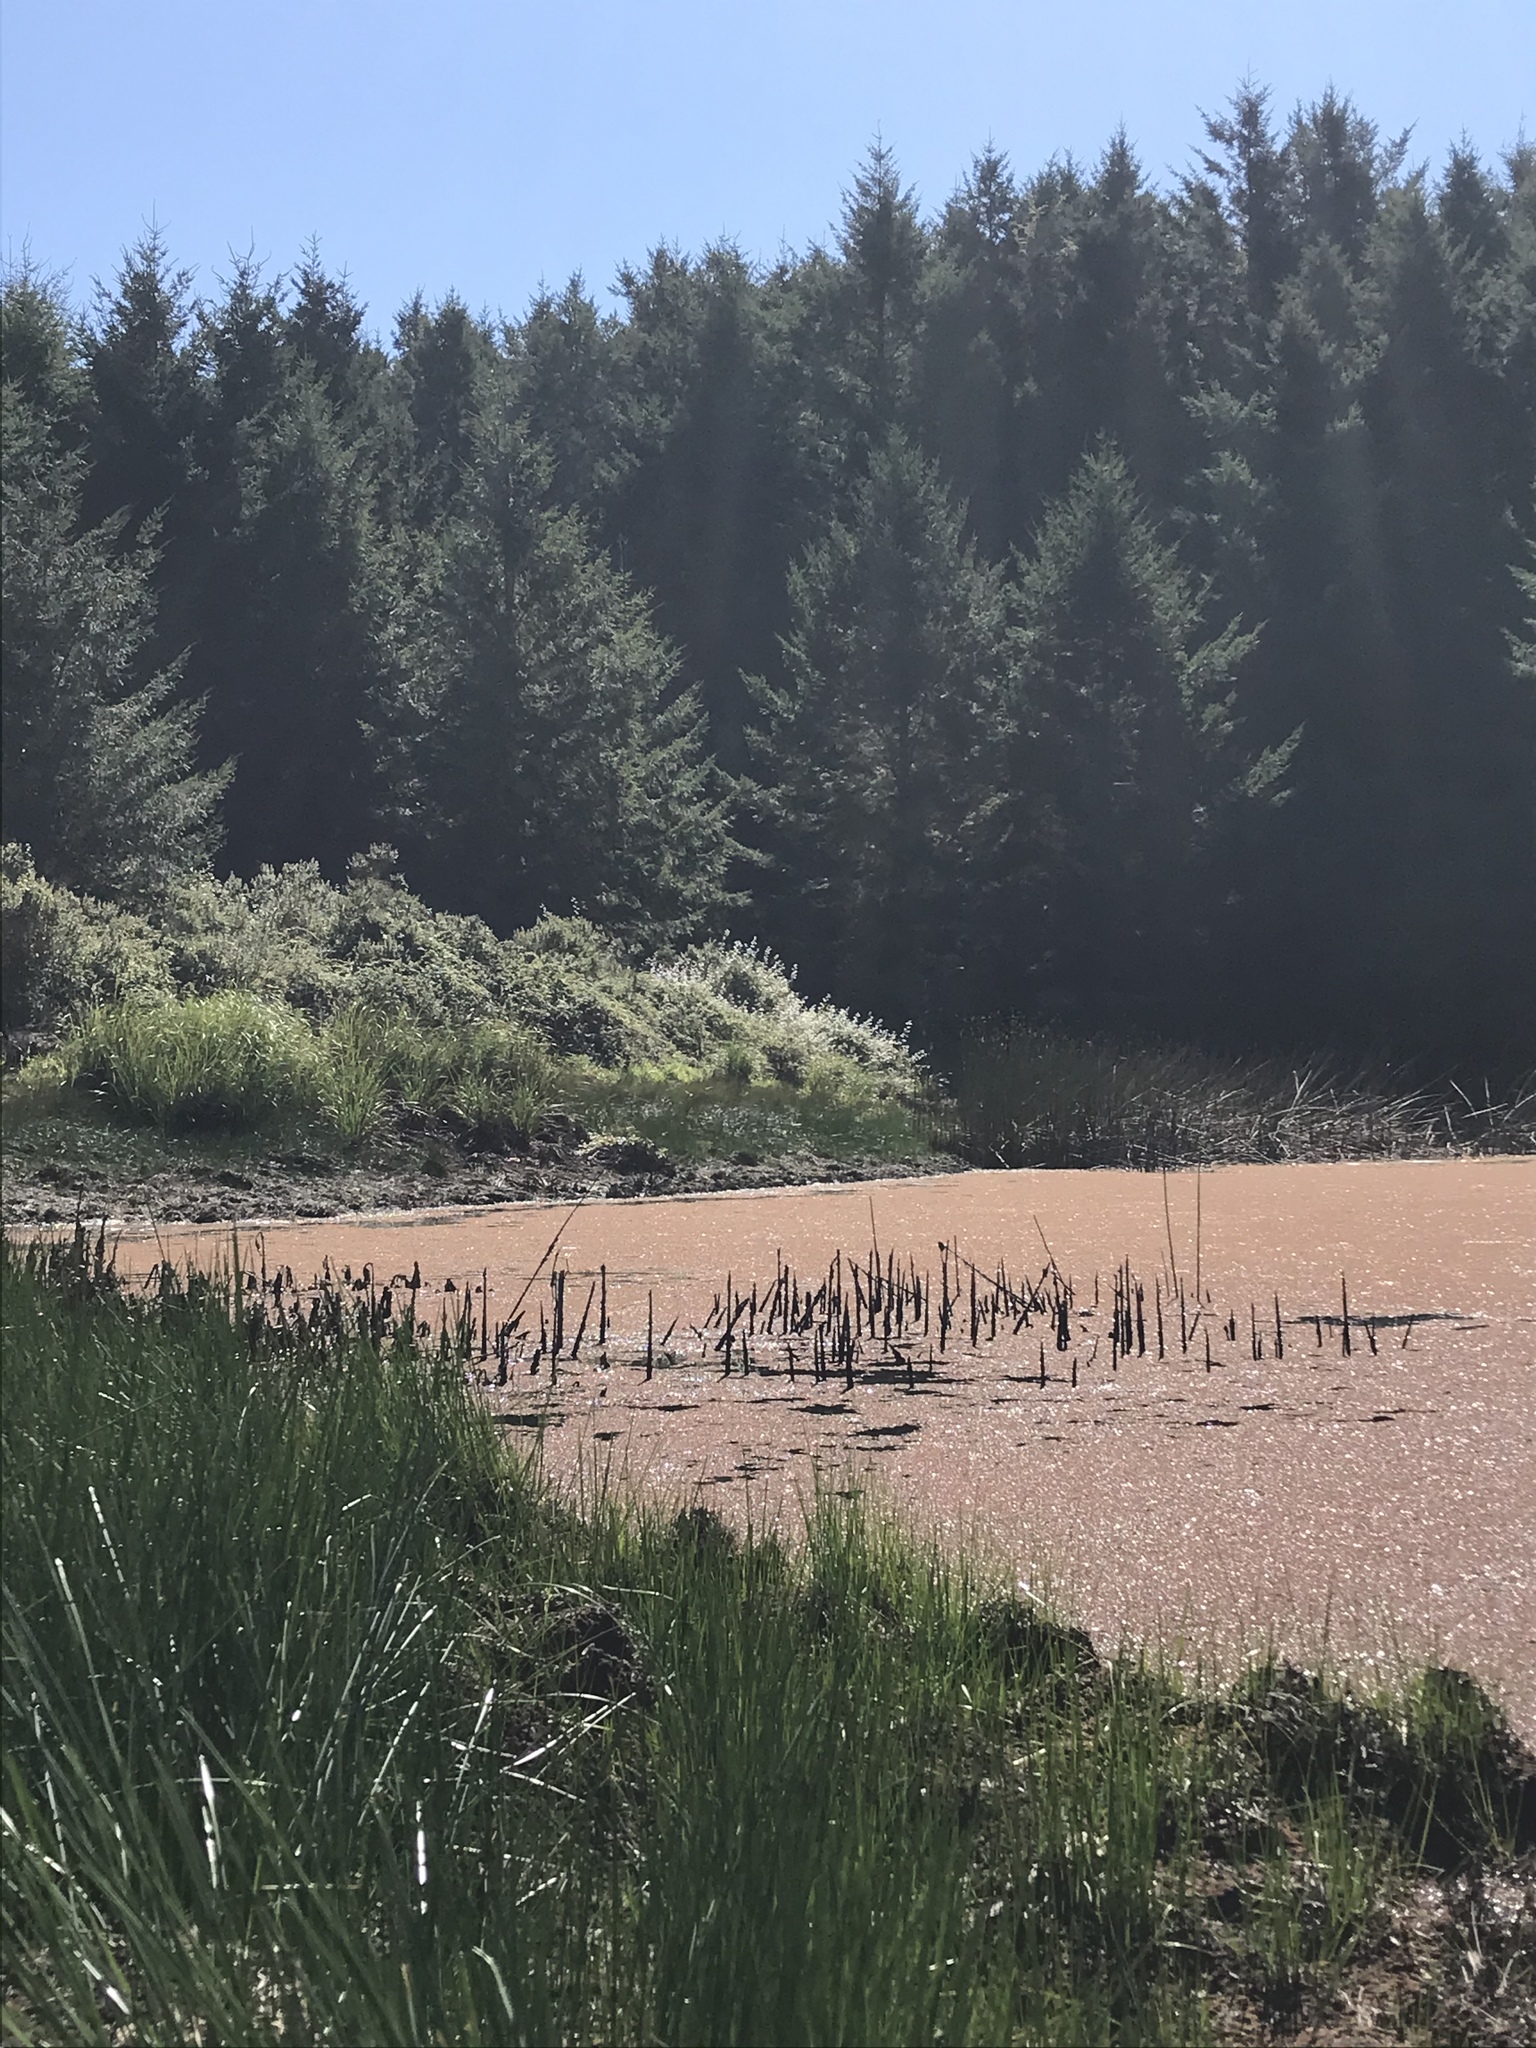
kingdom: Plantae
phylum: Tracheophyta
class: Polypodiopsida
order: Salviniales
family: Salviniaceae
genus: Azolla
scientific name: Azolla filiculoides
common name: Water fern
